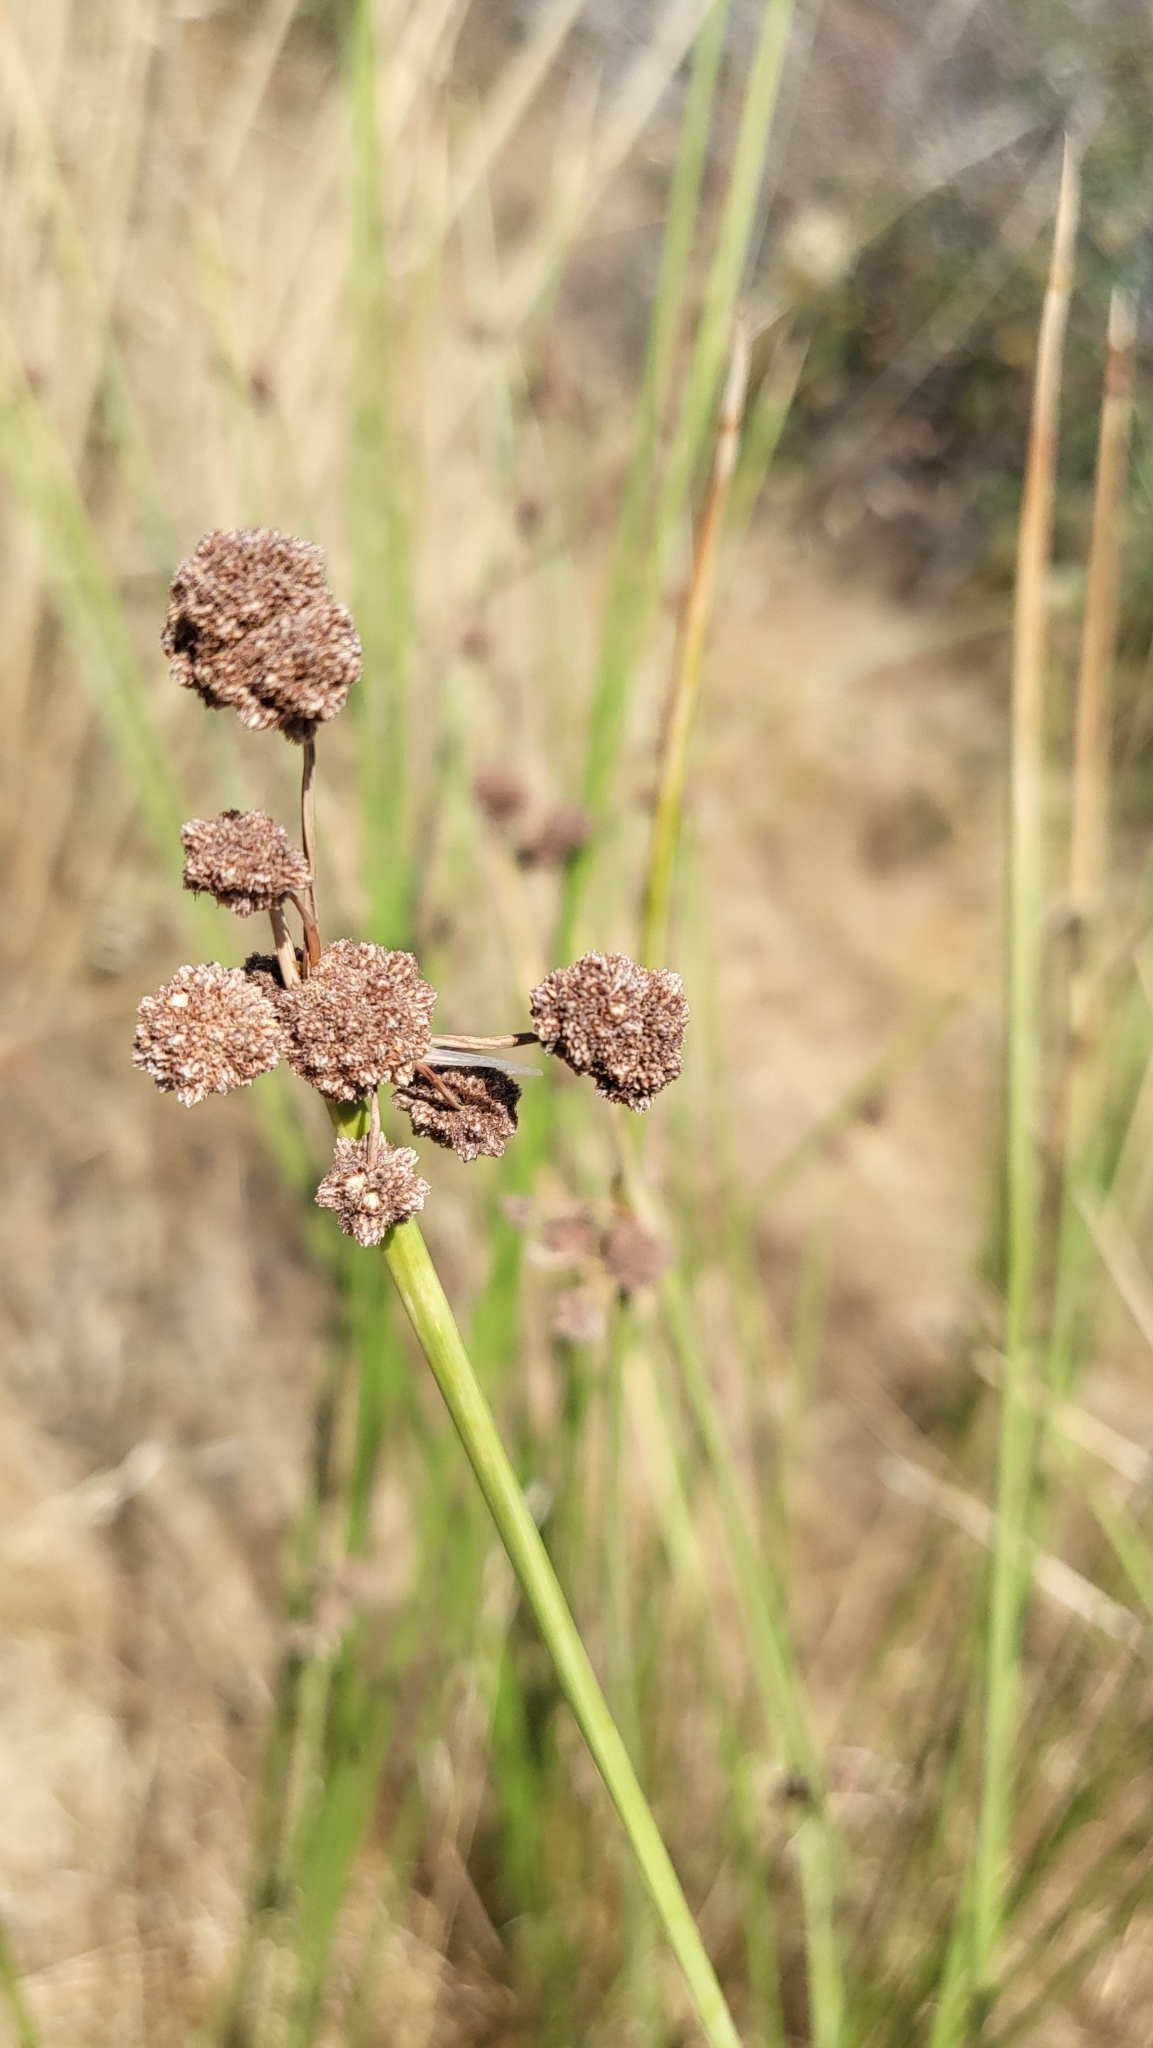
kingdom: Plantae
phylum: Tracheophyta
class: Liliopsida
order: Poales
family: Cyperaceae
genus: Scirpoides
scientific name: Scirpoides holoschoenus
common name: Round-headed club-rush
